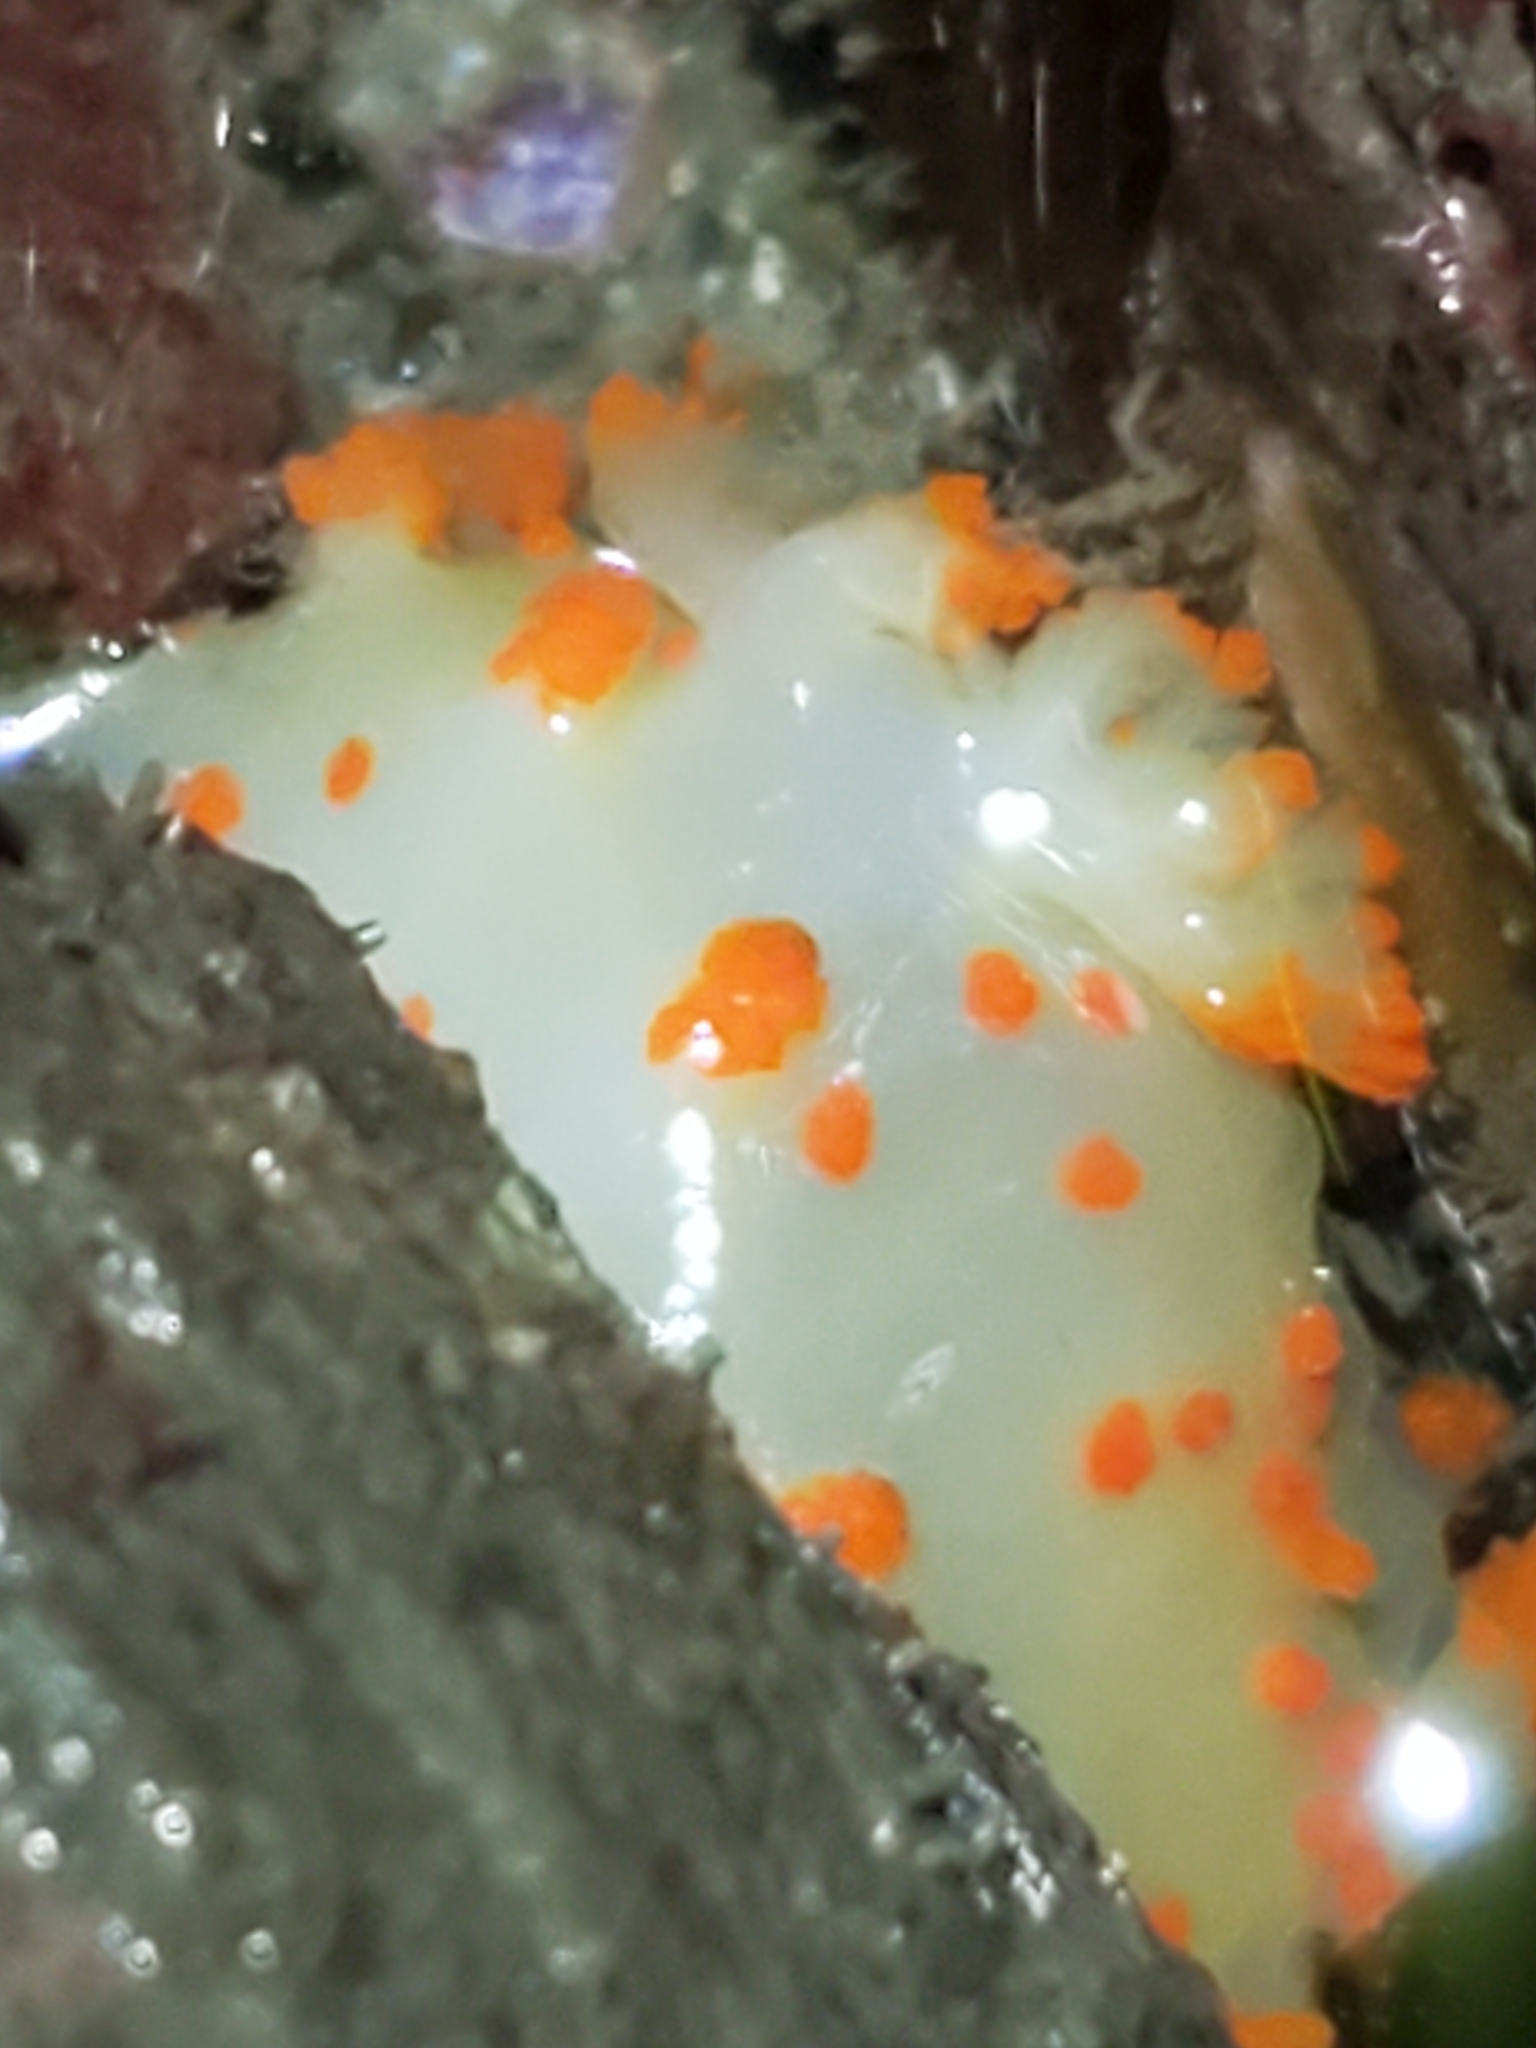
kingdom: Animalia
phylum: Mollusca
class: Gastropoda
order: Nudibranchia
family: Polyceridae
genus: Triopha
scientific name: Triopha catalinae
